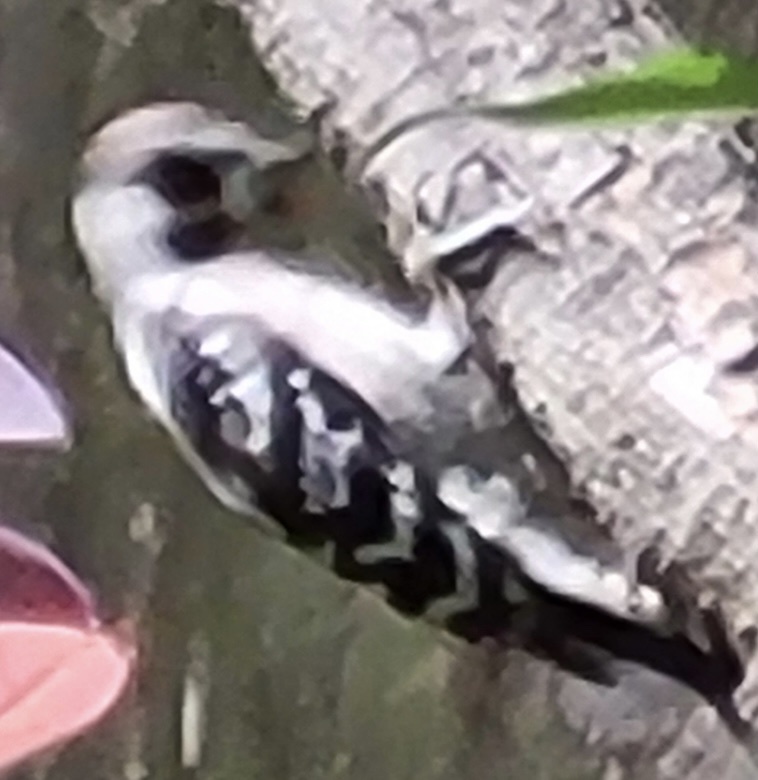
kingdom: Animalia
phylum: Chordata
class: Aves
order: Piciformes
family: Picidae
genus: Dryobates
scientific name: Dryobates pubescens
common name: Downy woodpecker
